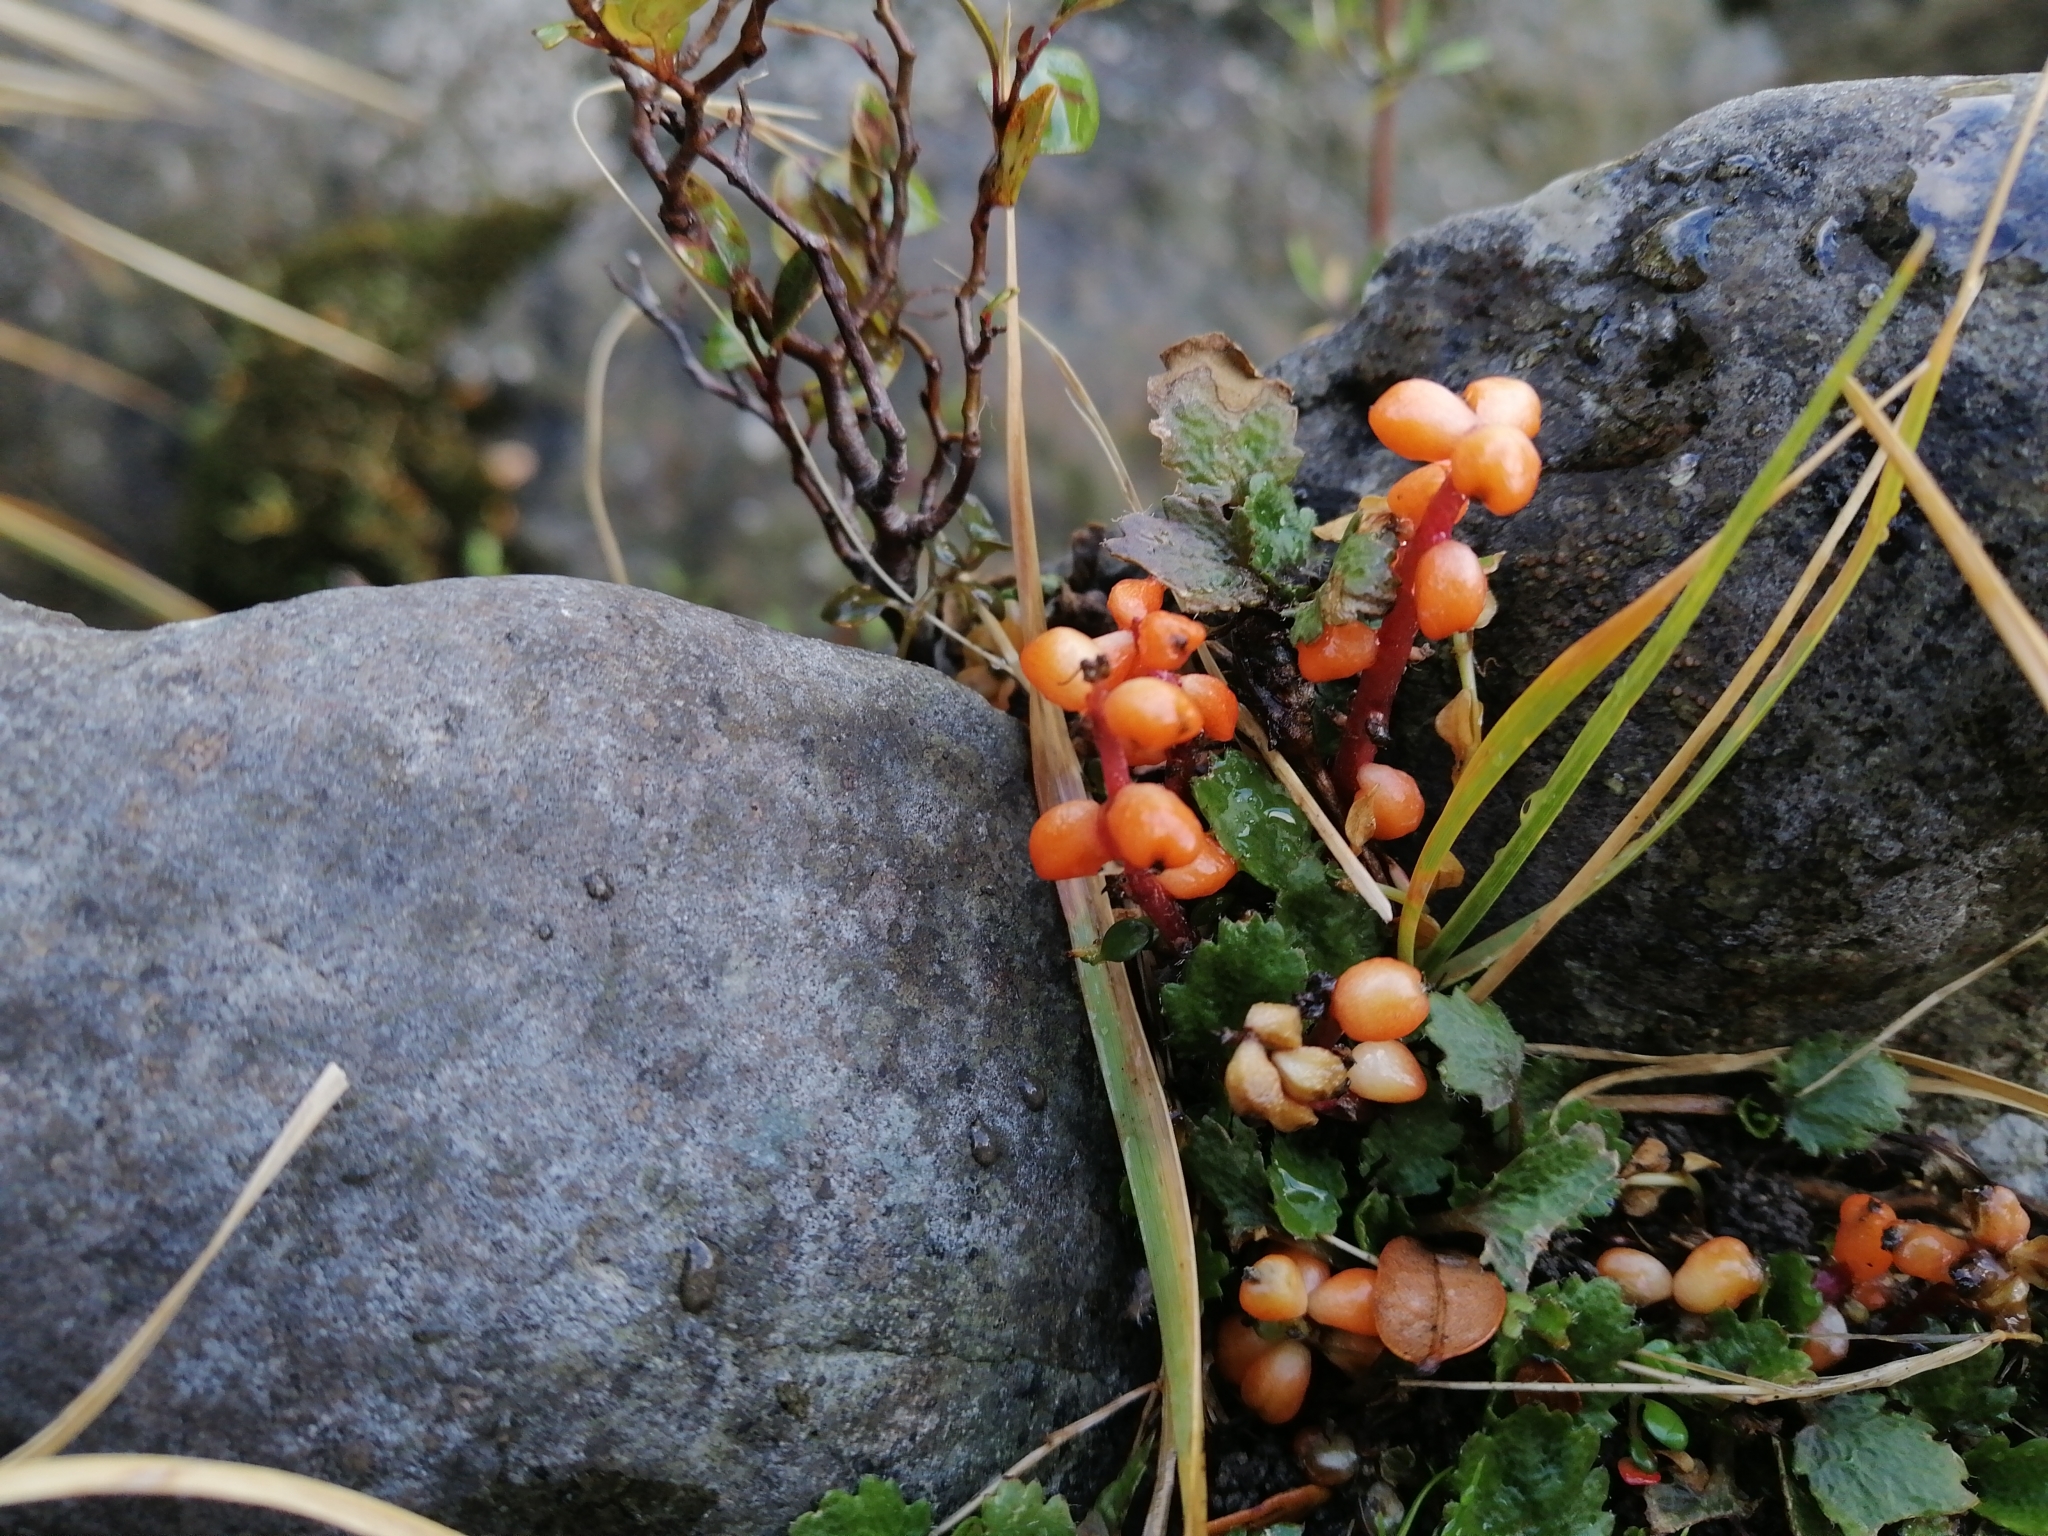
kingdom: Plantae
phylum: Tracheophyta
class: Magnoliopsida
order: Gunnerales
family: Gunneraceae
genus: Gunnera
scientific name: Gunnera dentata
